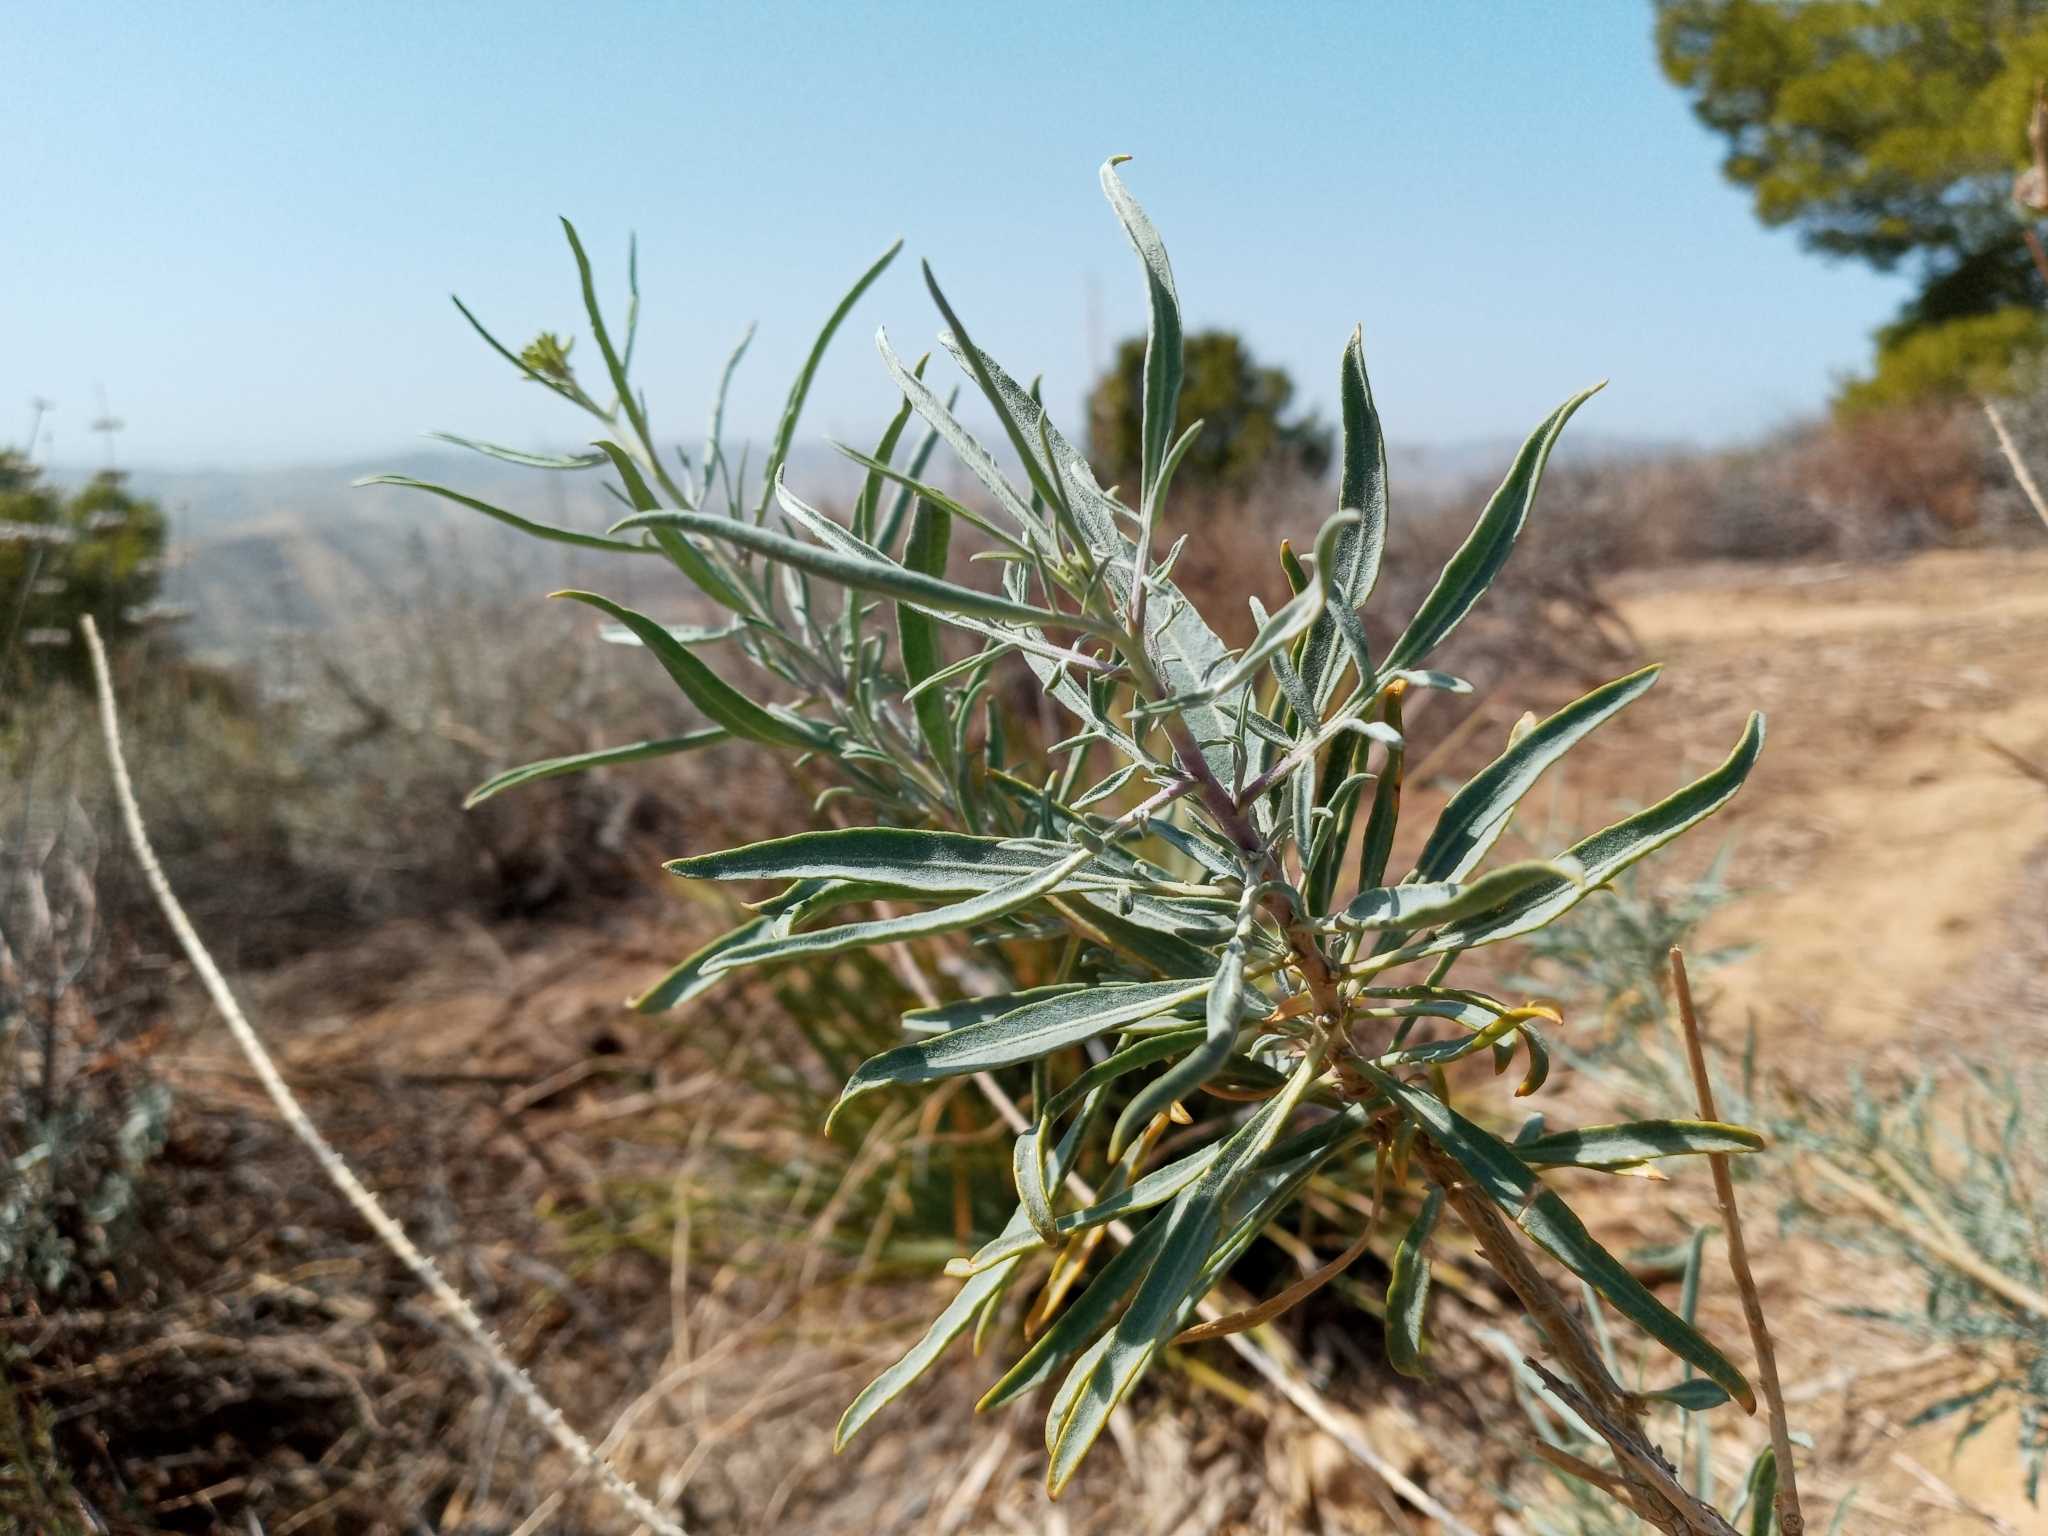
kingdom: Plantae
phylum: Tracheophyta
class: Magnoliopsida
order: Brassicales
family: Brassicaceae
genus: Stanleya
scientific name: Stanleya pinnata
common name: Prince's-plume
